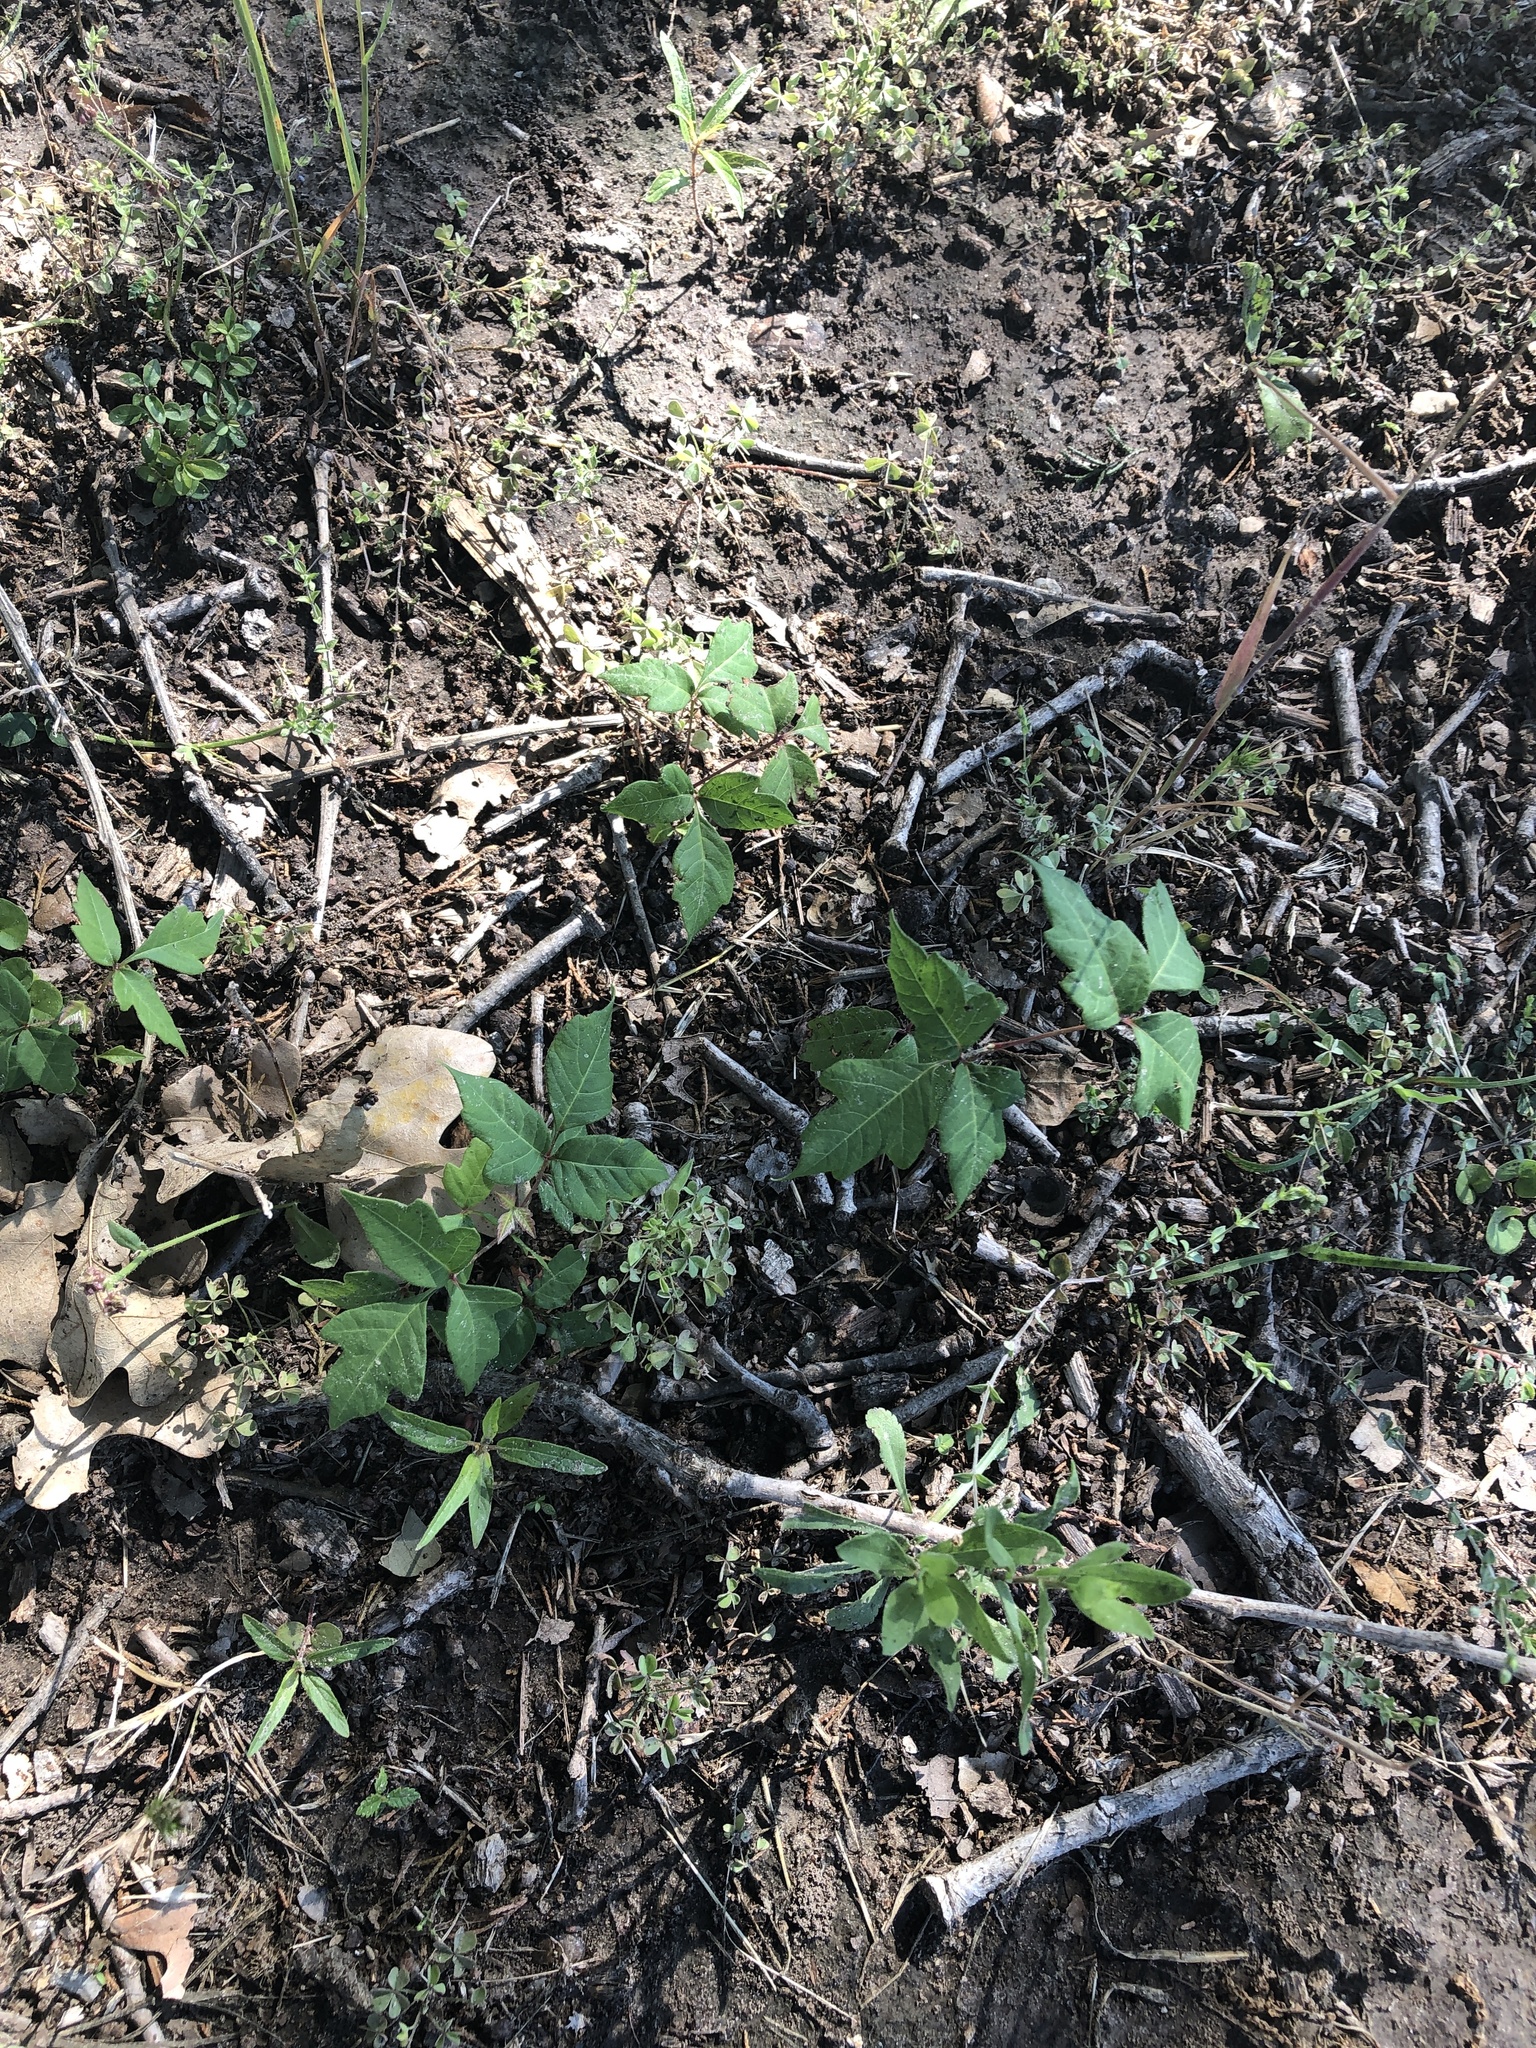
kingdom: Plantae
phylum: Tracheophyta
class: Magnoliopsida
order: Sapindales
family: Anacardiaceae
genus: Toxicodendron
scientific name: Toxicodendron radicans
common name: Poison ivy
